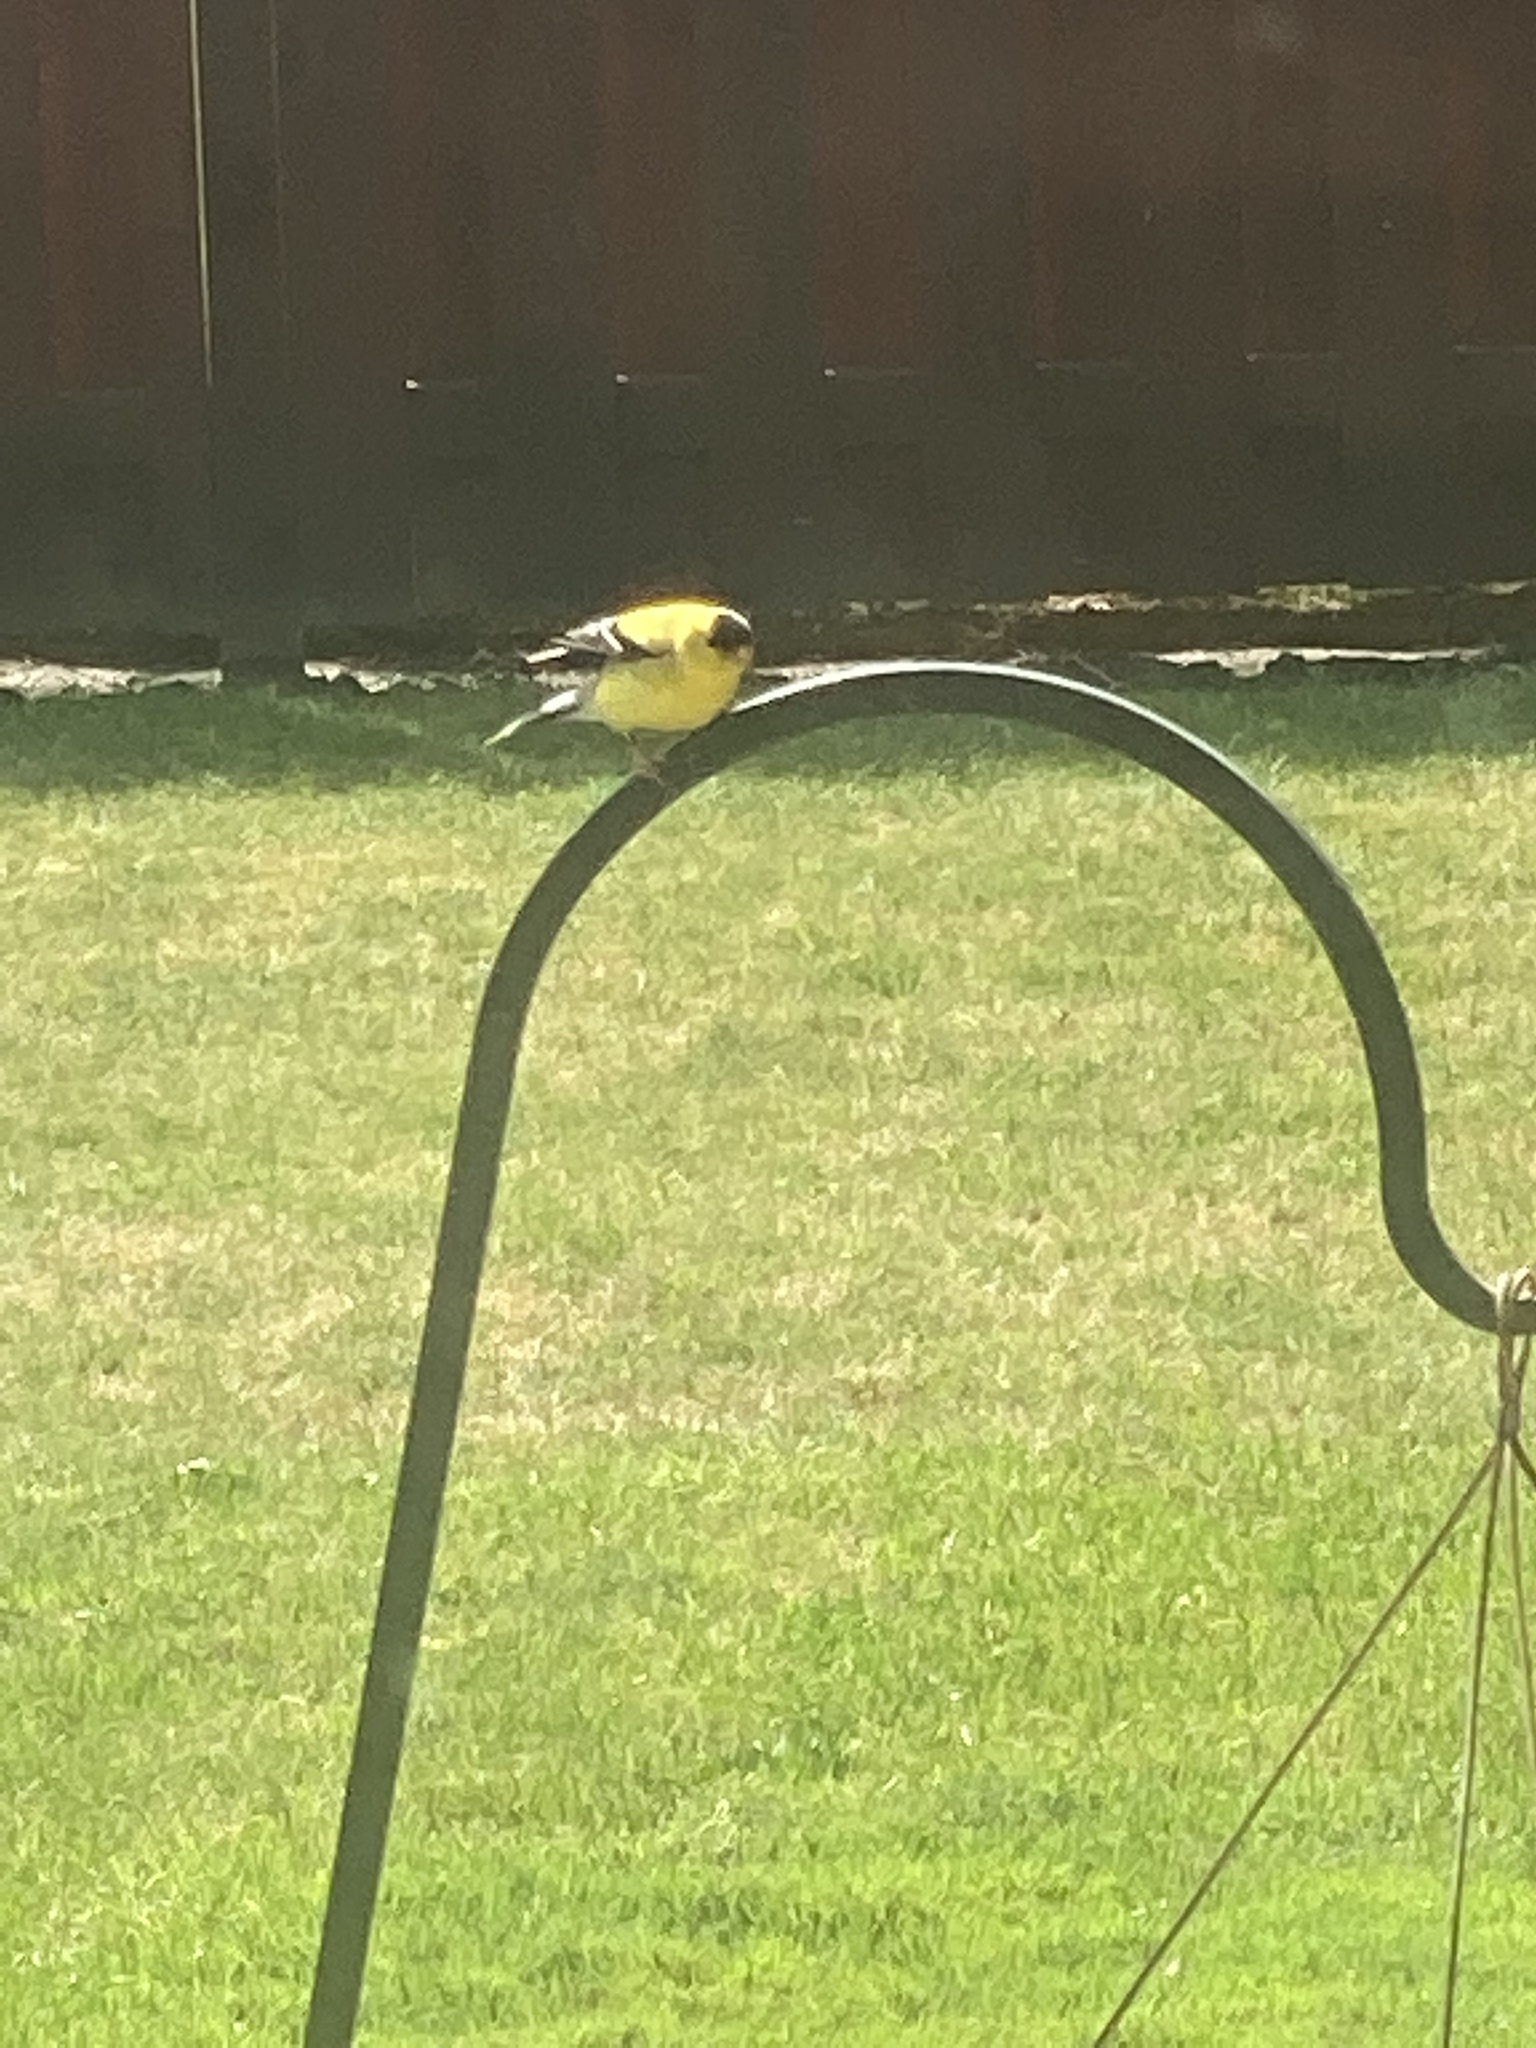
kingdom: Animalia
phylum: Chordata
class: Aves
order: Passeriformes
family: Fringillidae
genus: Spinus
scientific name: Spinus tristis
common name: American goldfinch
